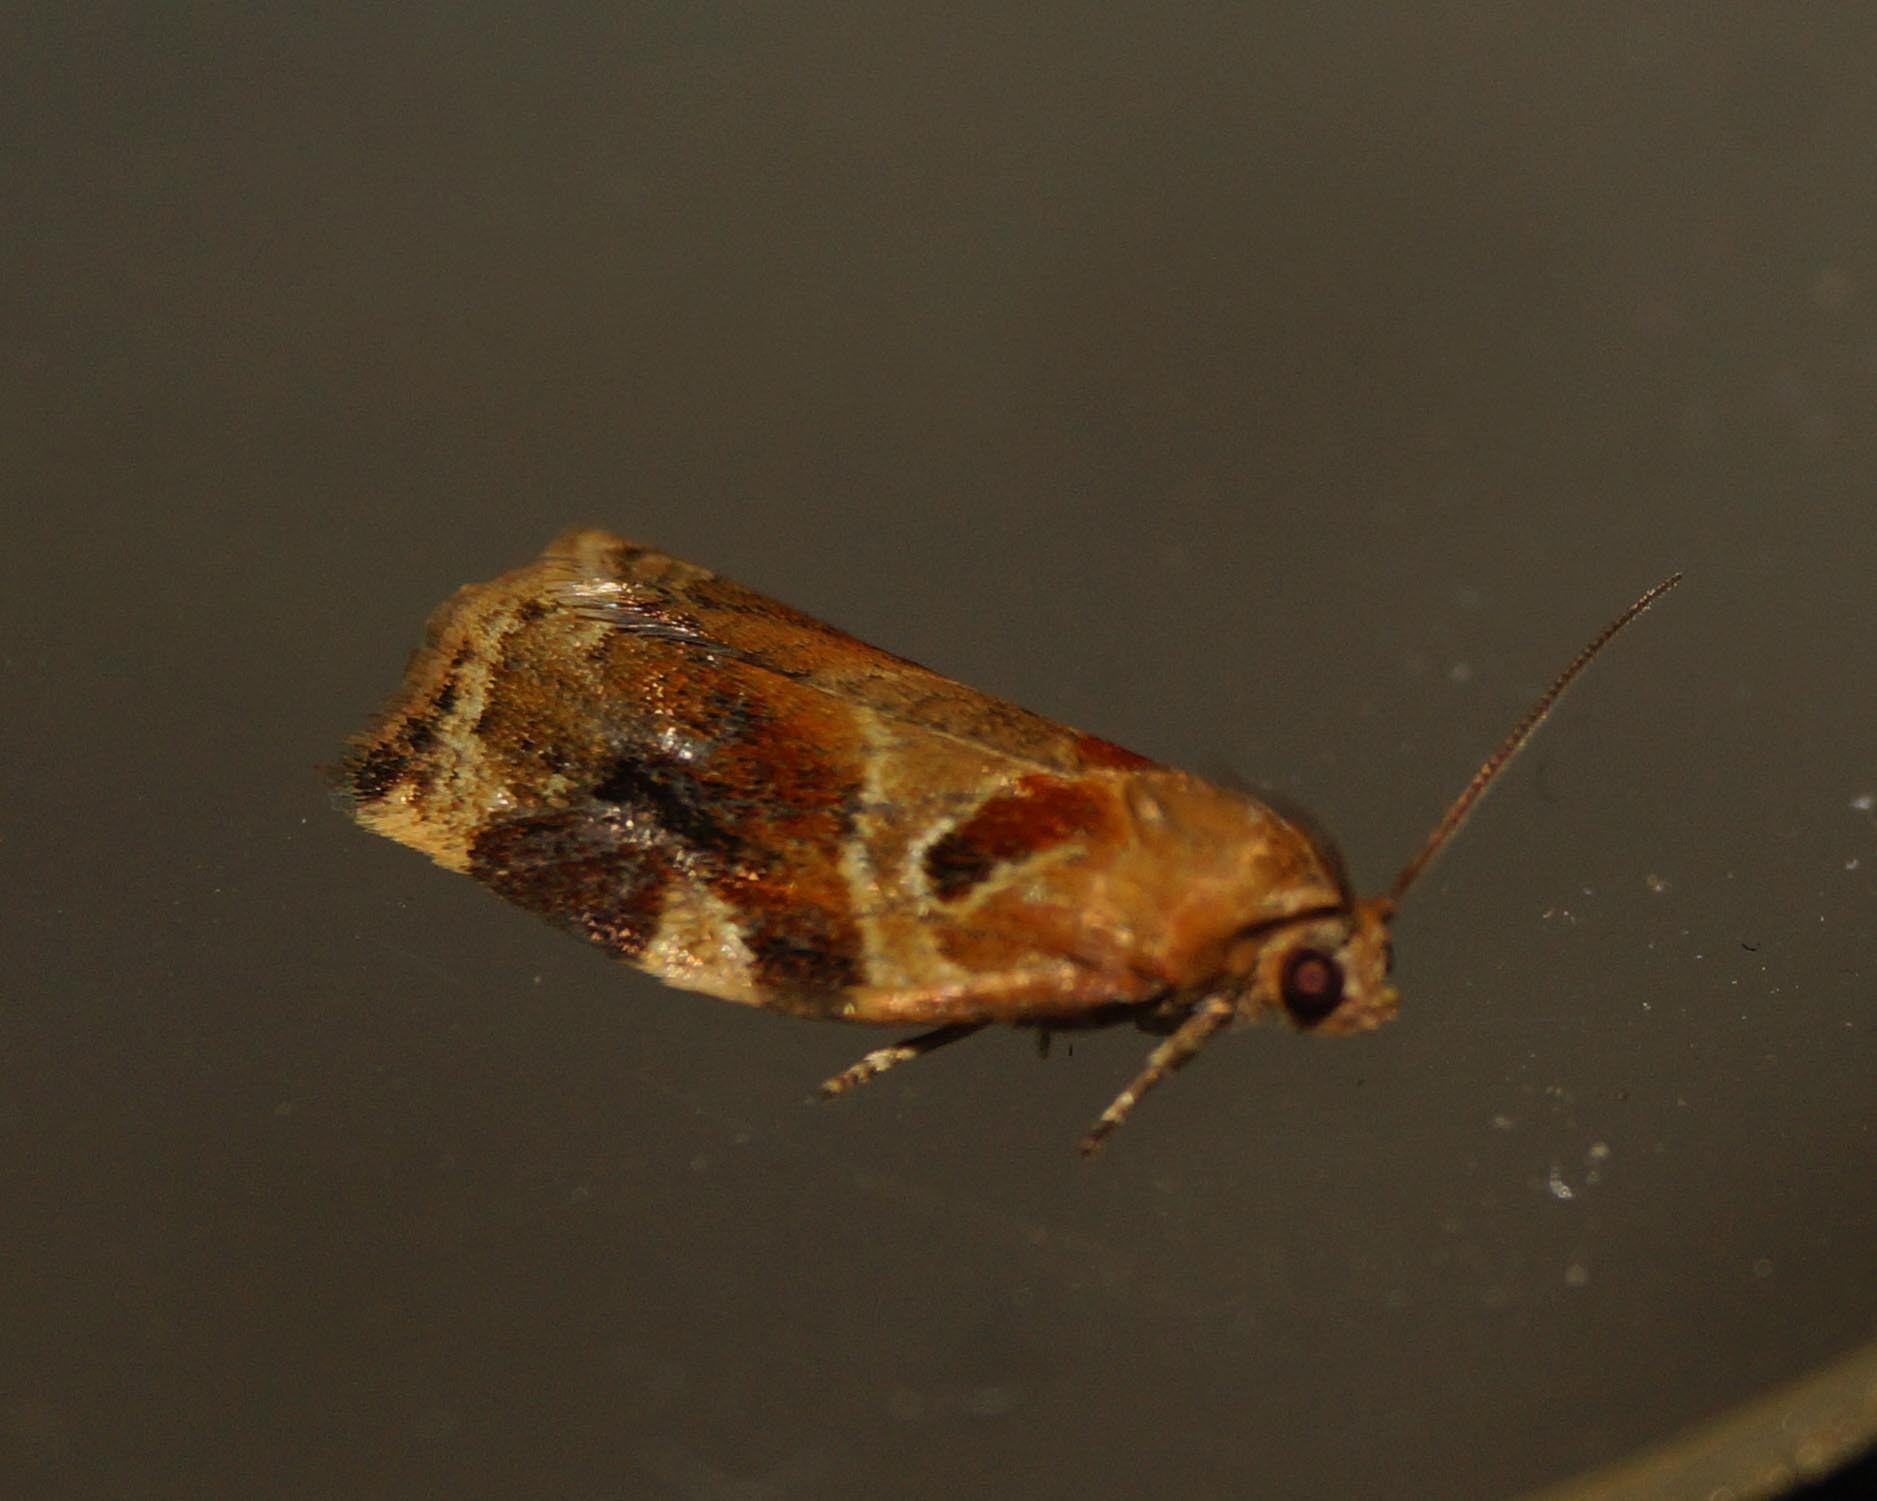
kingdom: Animalia
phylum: Arthropoda
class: Insecta
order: Lepidoptera
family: Tortricidae
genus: Archips
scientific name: Archips xylosteana
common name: Variegated golden tortrix
